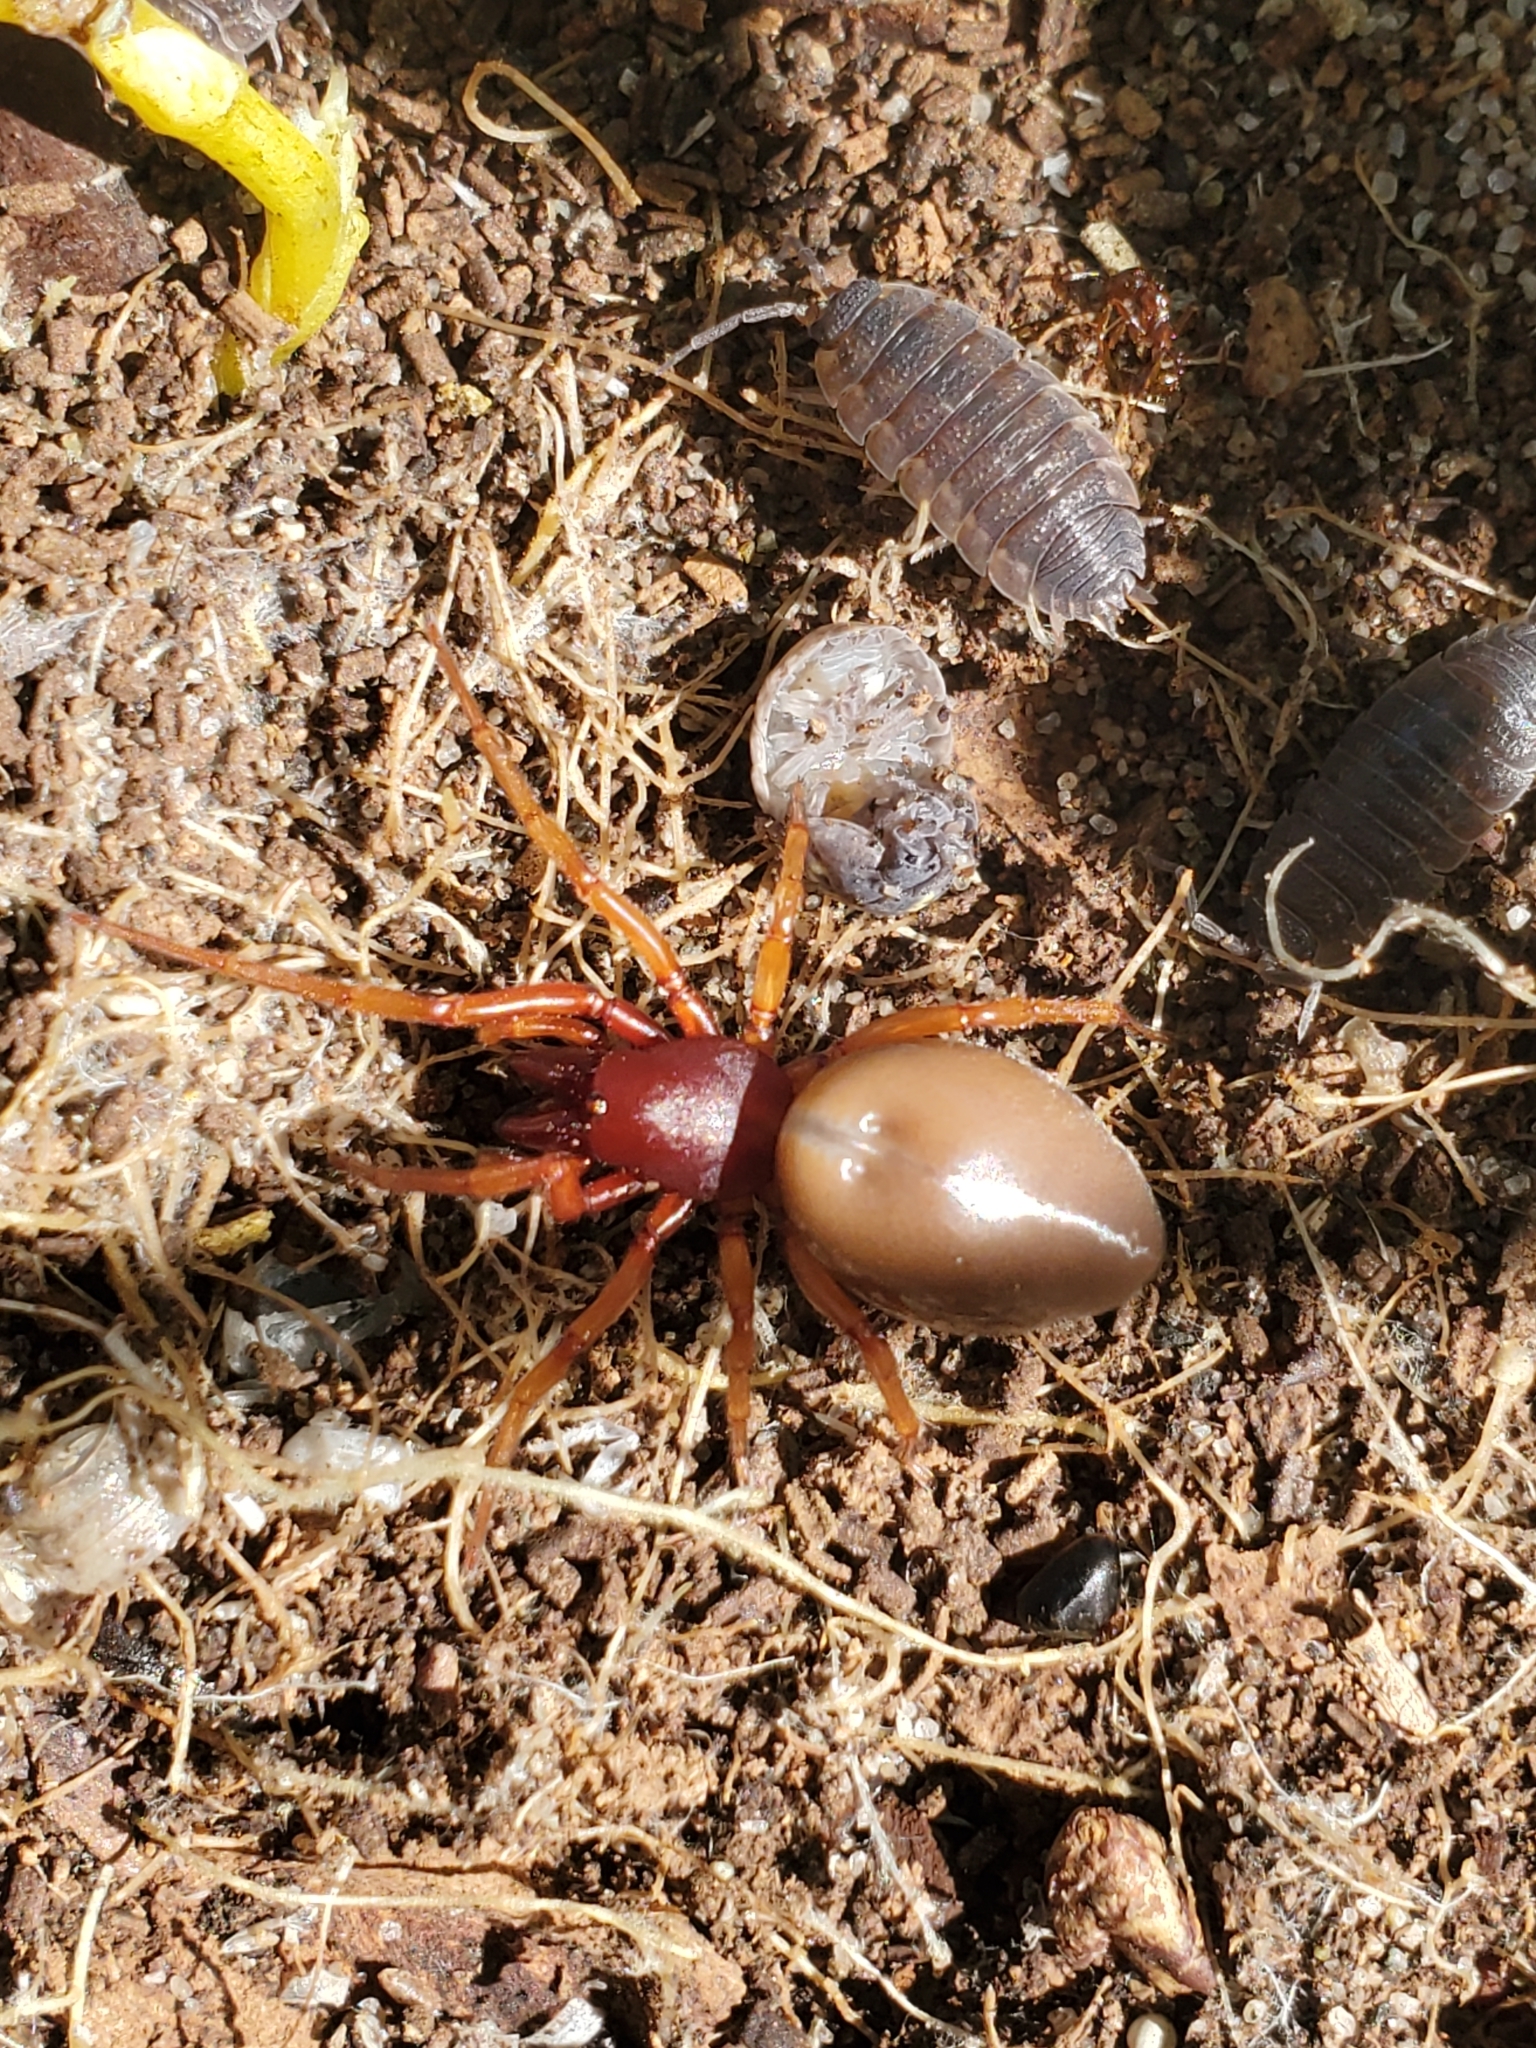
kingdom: Animalia
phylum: Arthropoda
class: Arachnida
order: Araneae
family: Dysderidae
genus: Dysdera
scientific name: Dysdera crocata
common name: Woodlouse spider
